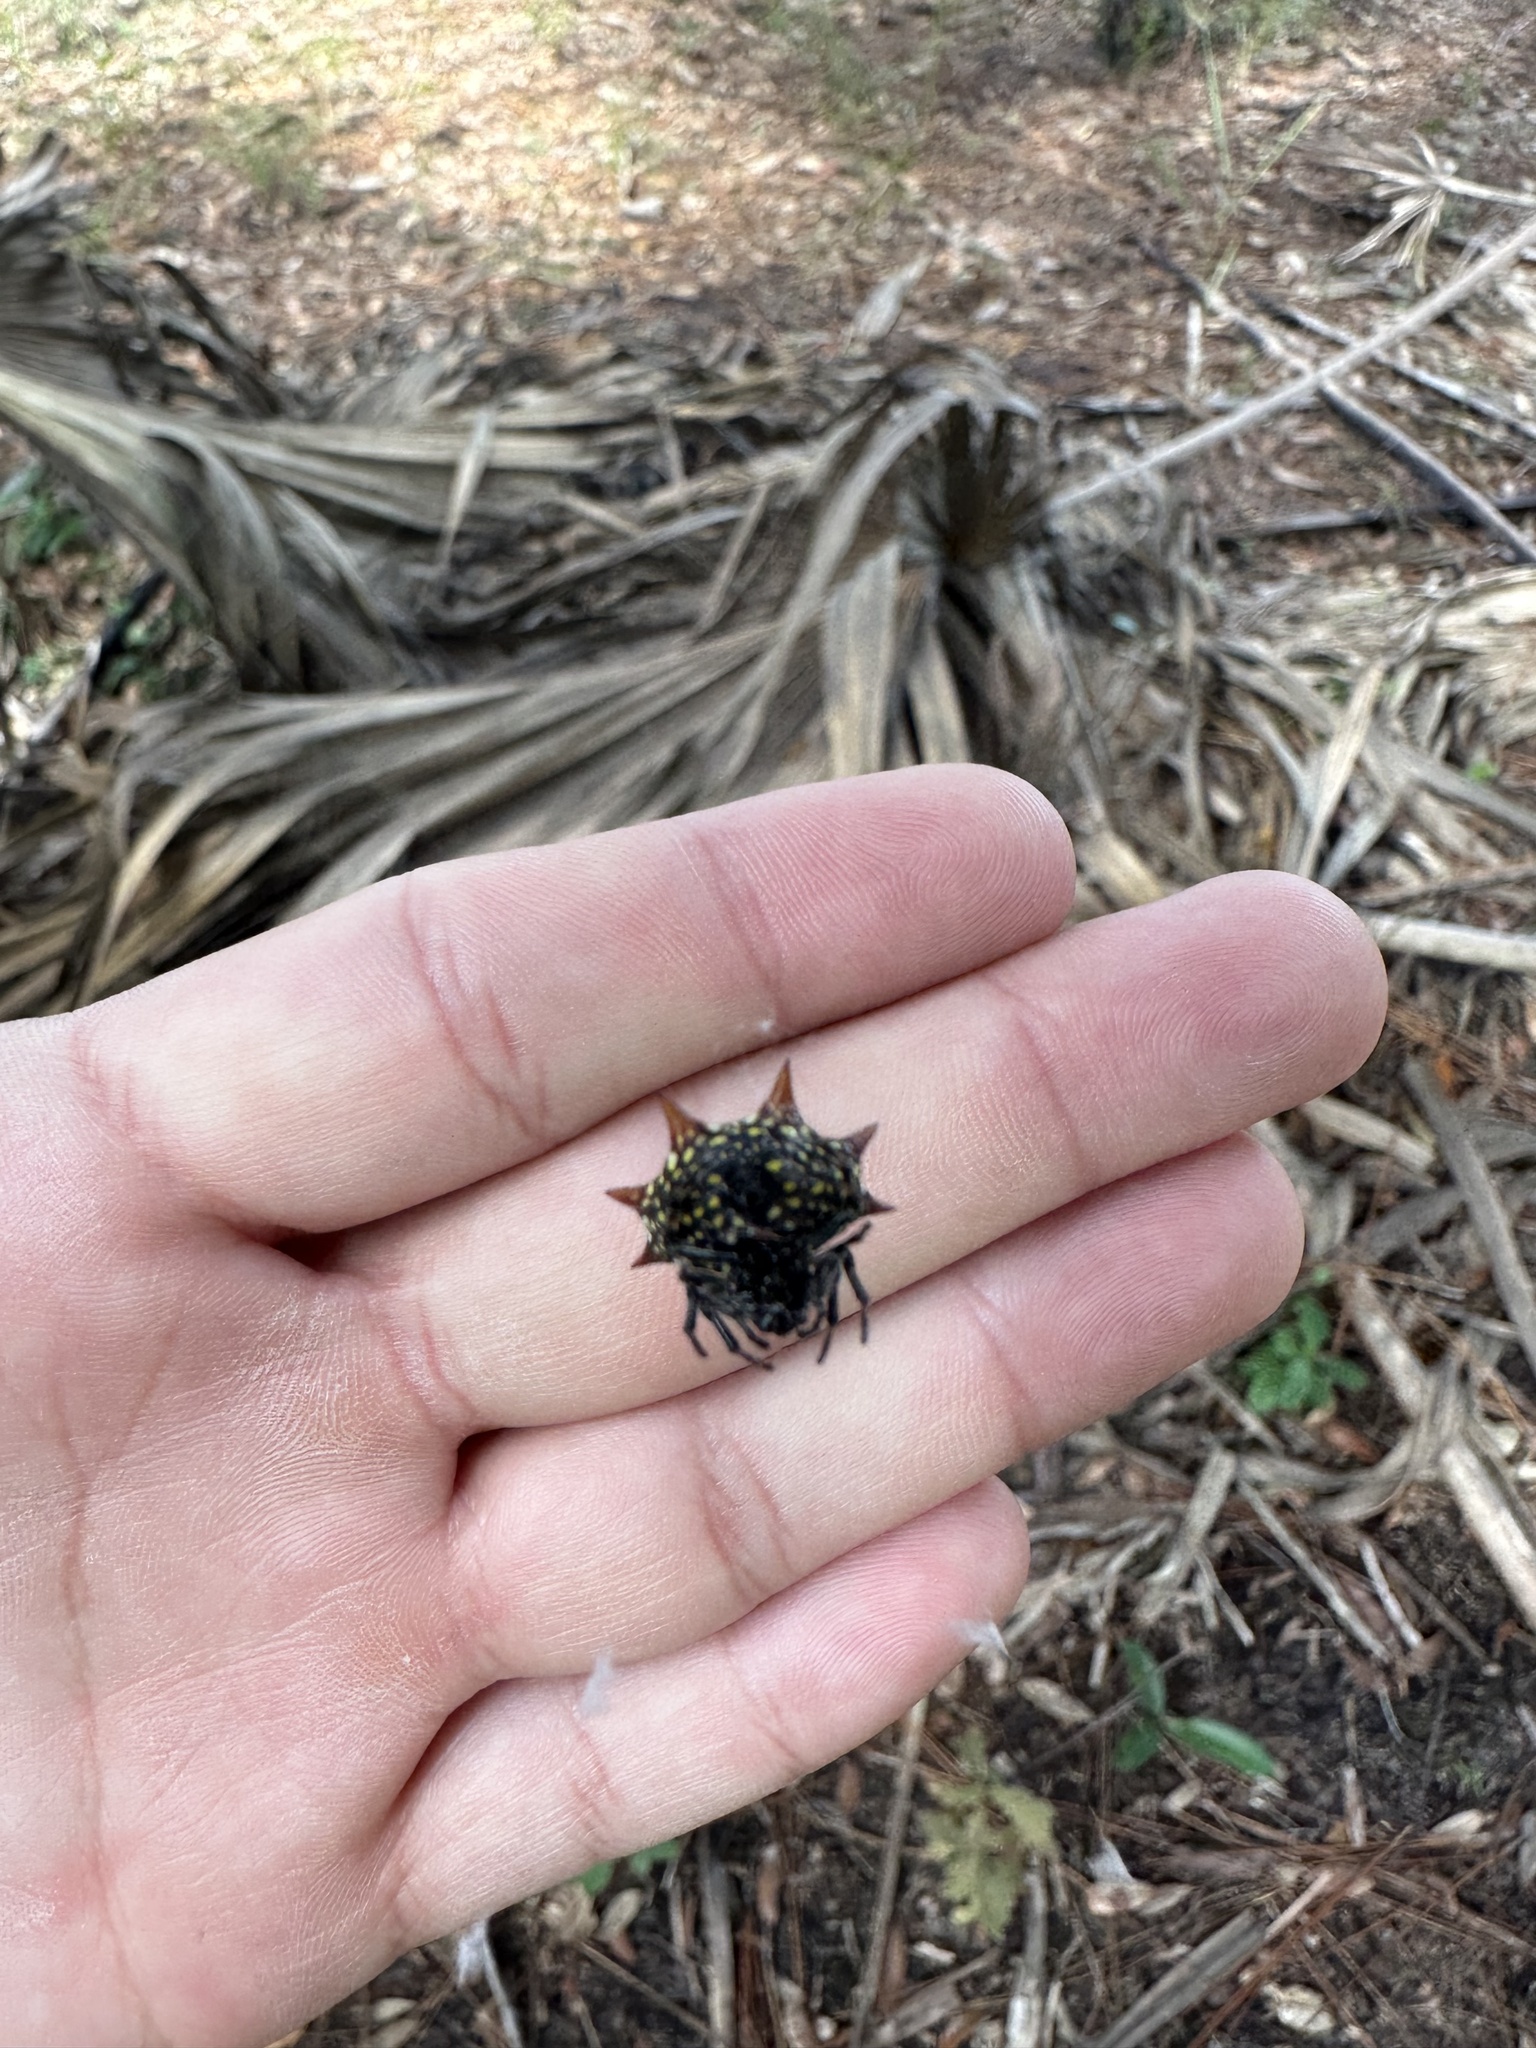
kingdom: Animalia
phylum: Arthropoda
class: Arachnida
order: Araneae
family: Araneidae
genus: Gasteracantha
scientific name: Gasteracantha cancriformis
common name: Orb weavers
